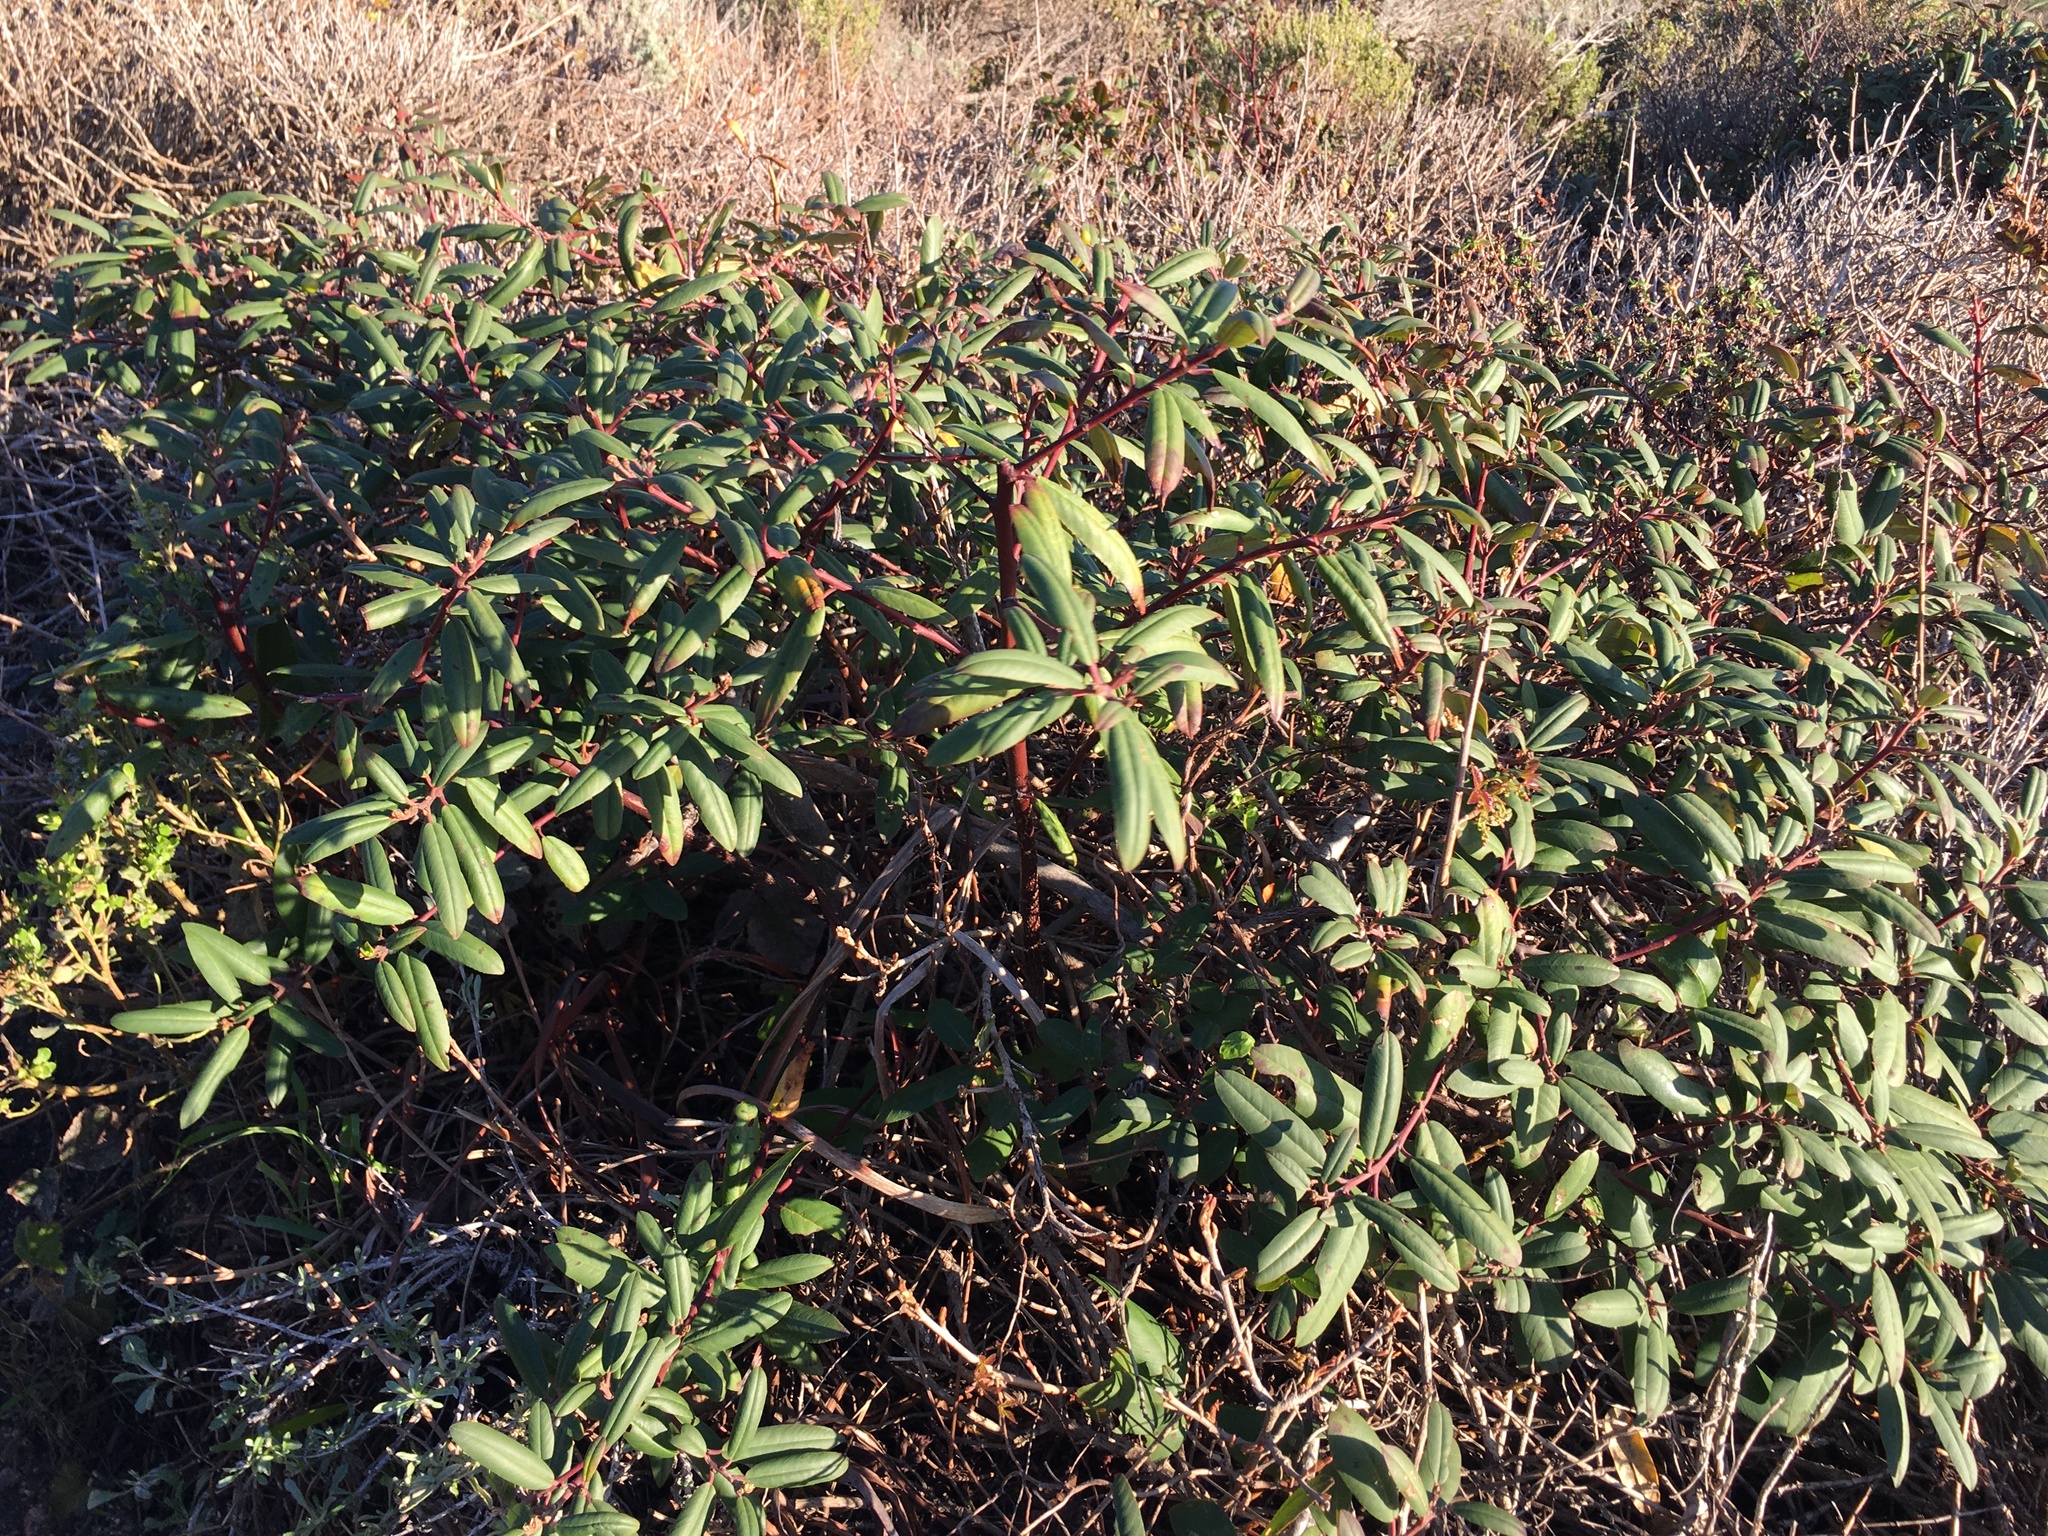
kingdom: Plantae
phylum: Tracheophyta
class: Magnoliopsida
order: Rosales
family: Rhamnaceae
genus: Frangula
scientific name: Frangula californica
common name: California buckthorn
